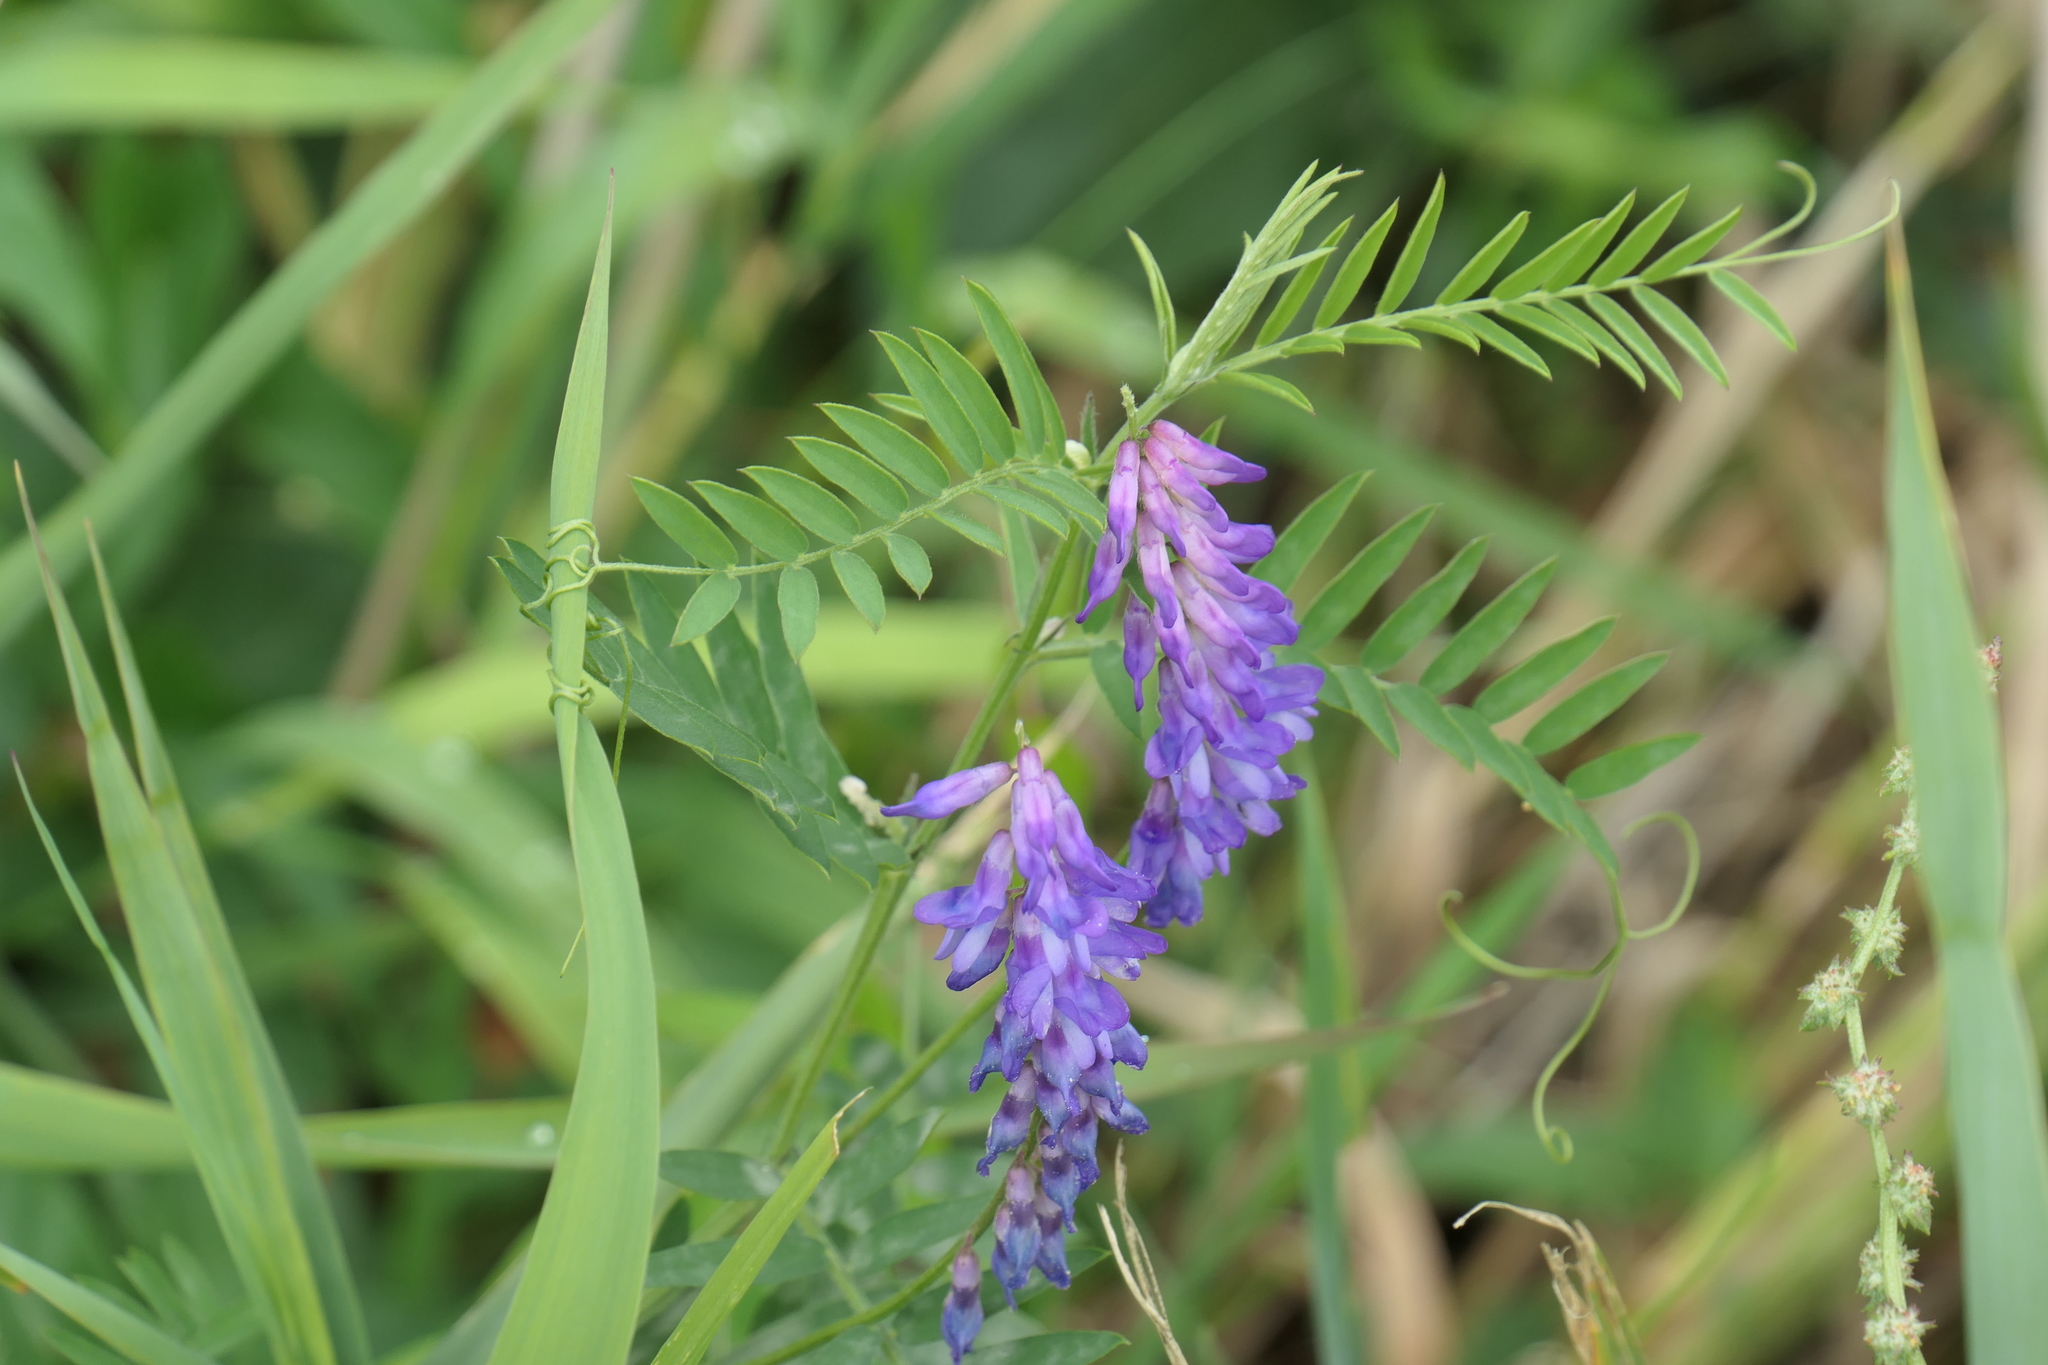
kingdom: Plantae
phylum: Tracheophyta
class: Magnoliopsida
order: Fabales
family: Fabaceae
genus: Vicia
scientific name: Vicia cracca
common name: Bird vetch
